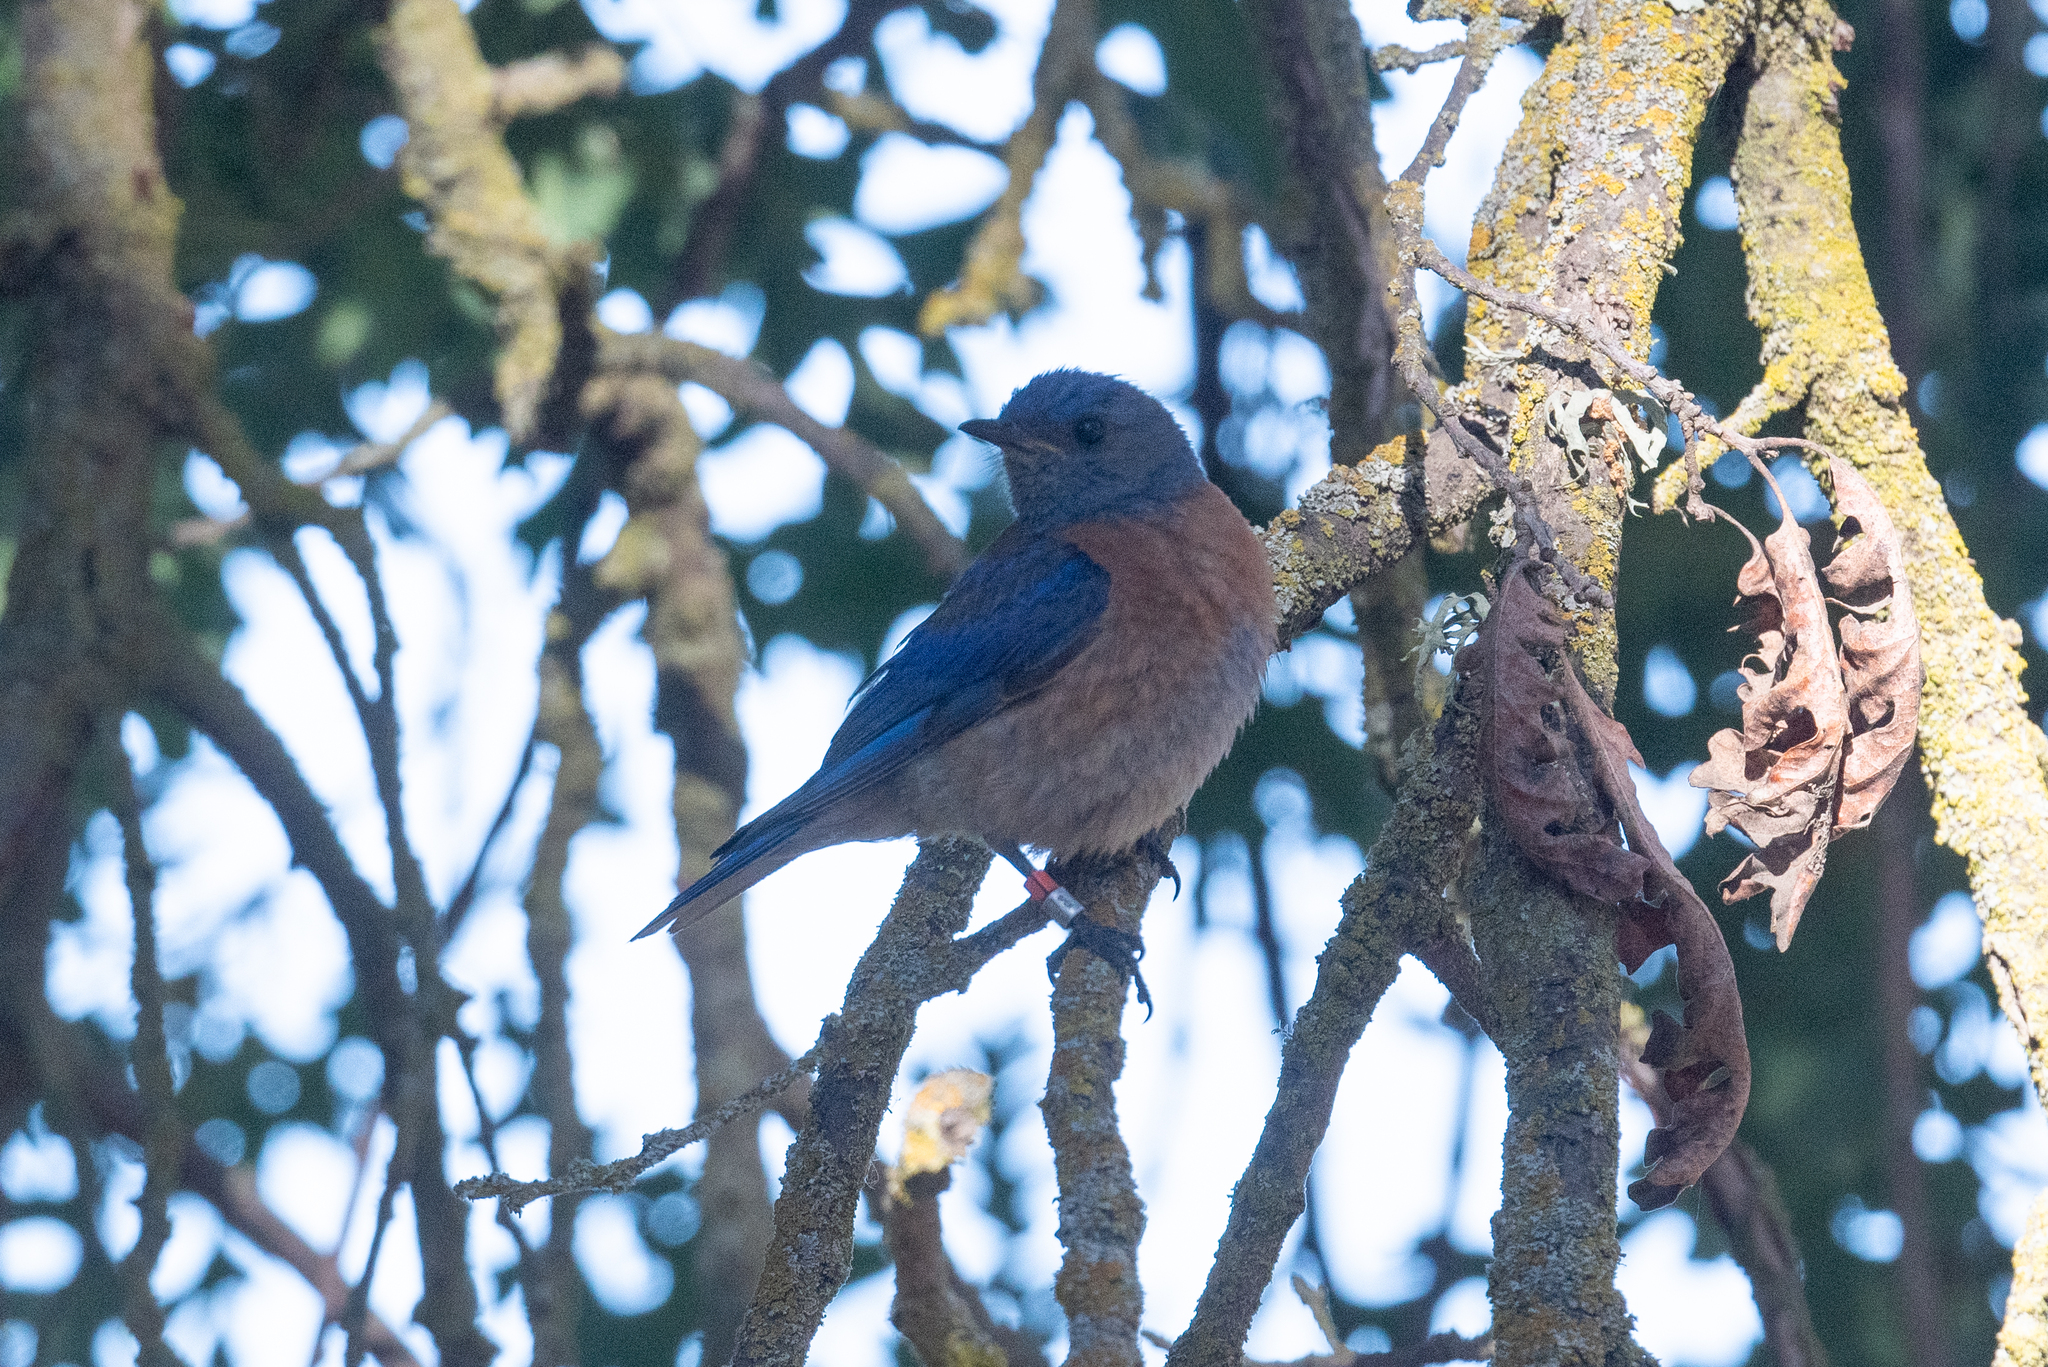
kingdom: Animalia
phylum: Chordata
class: Aves
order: Passeriformes
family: Turdidae
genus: Sialia
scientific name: Sialia mexicana
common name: Western bluebird
